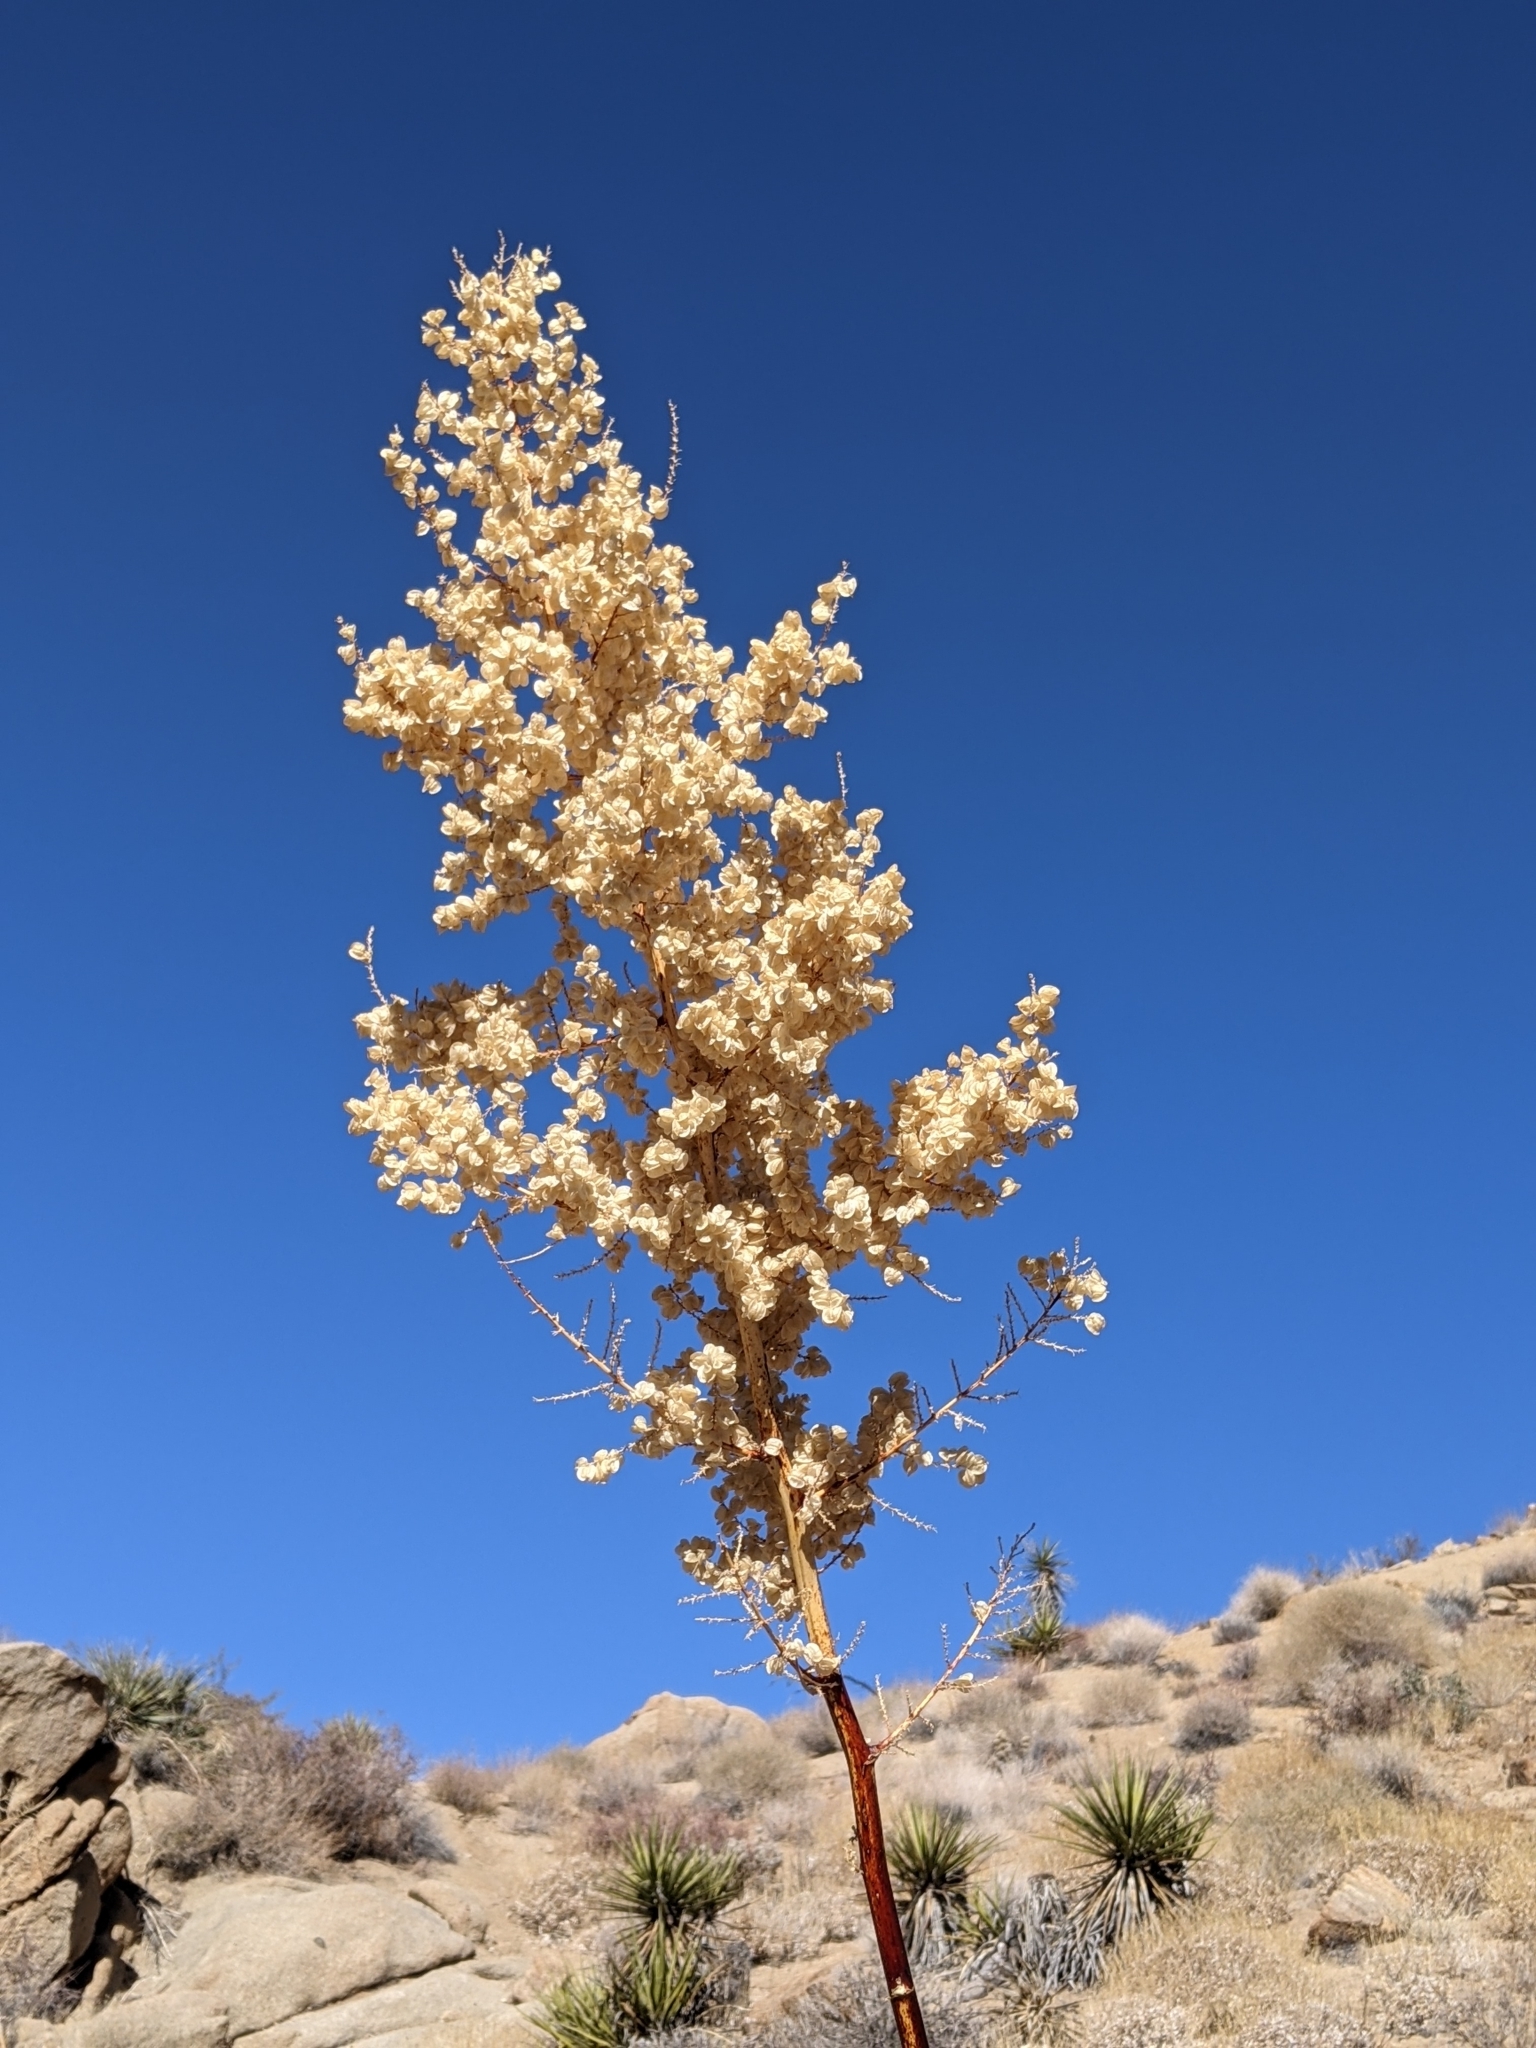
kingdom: Plantae
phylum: Tracheophyta
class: Liliopsida
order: Asparagales
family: Asparagaceae
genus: Nolina
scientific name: Nolina bigelovii
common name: Bigelow bear-grass
